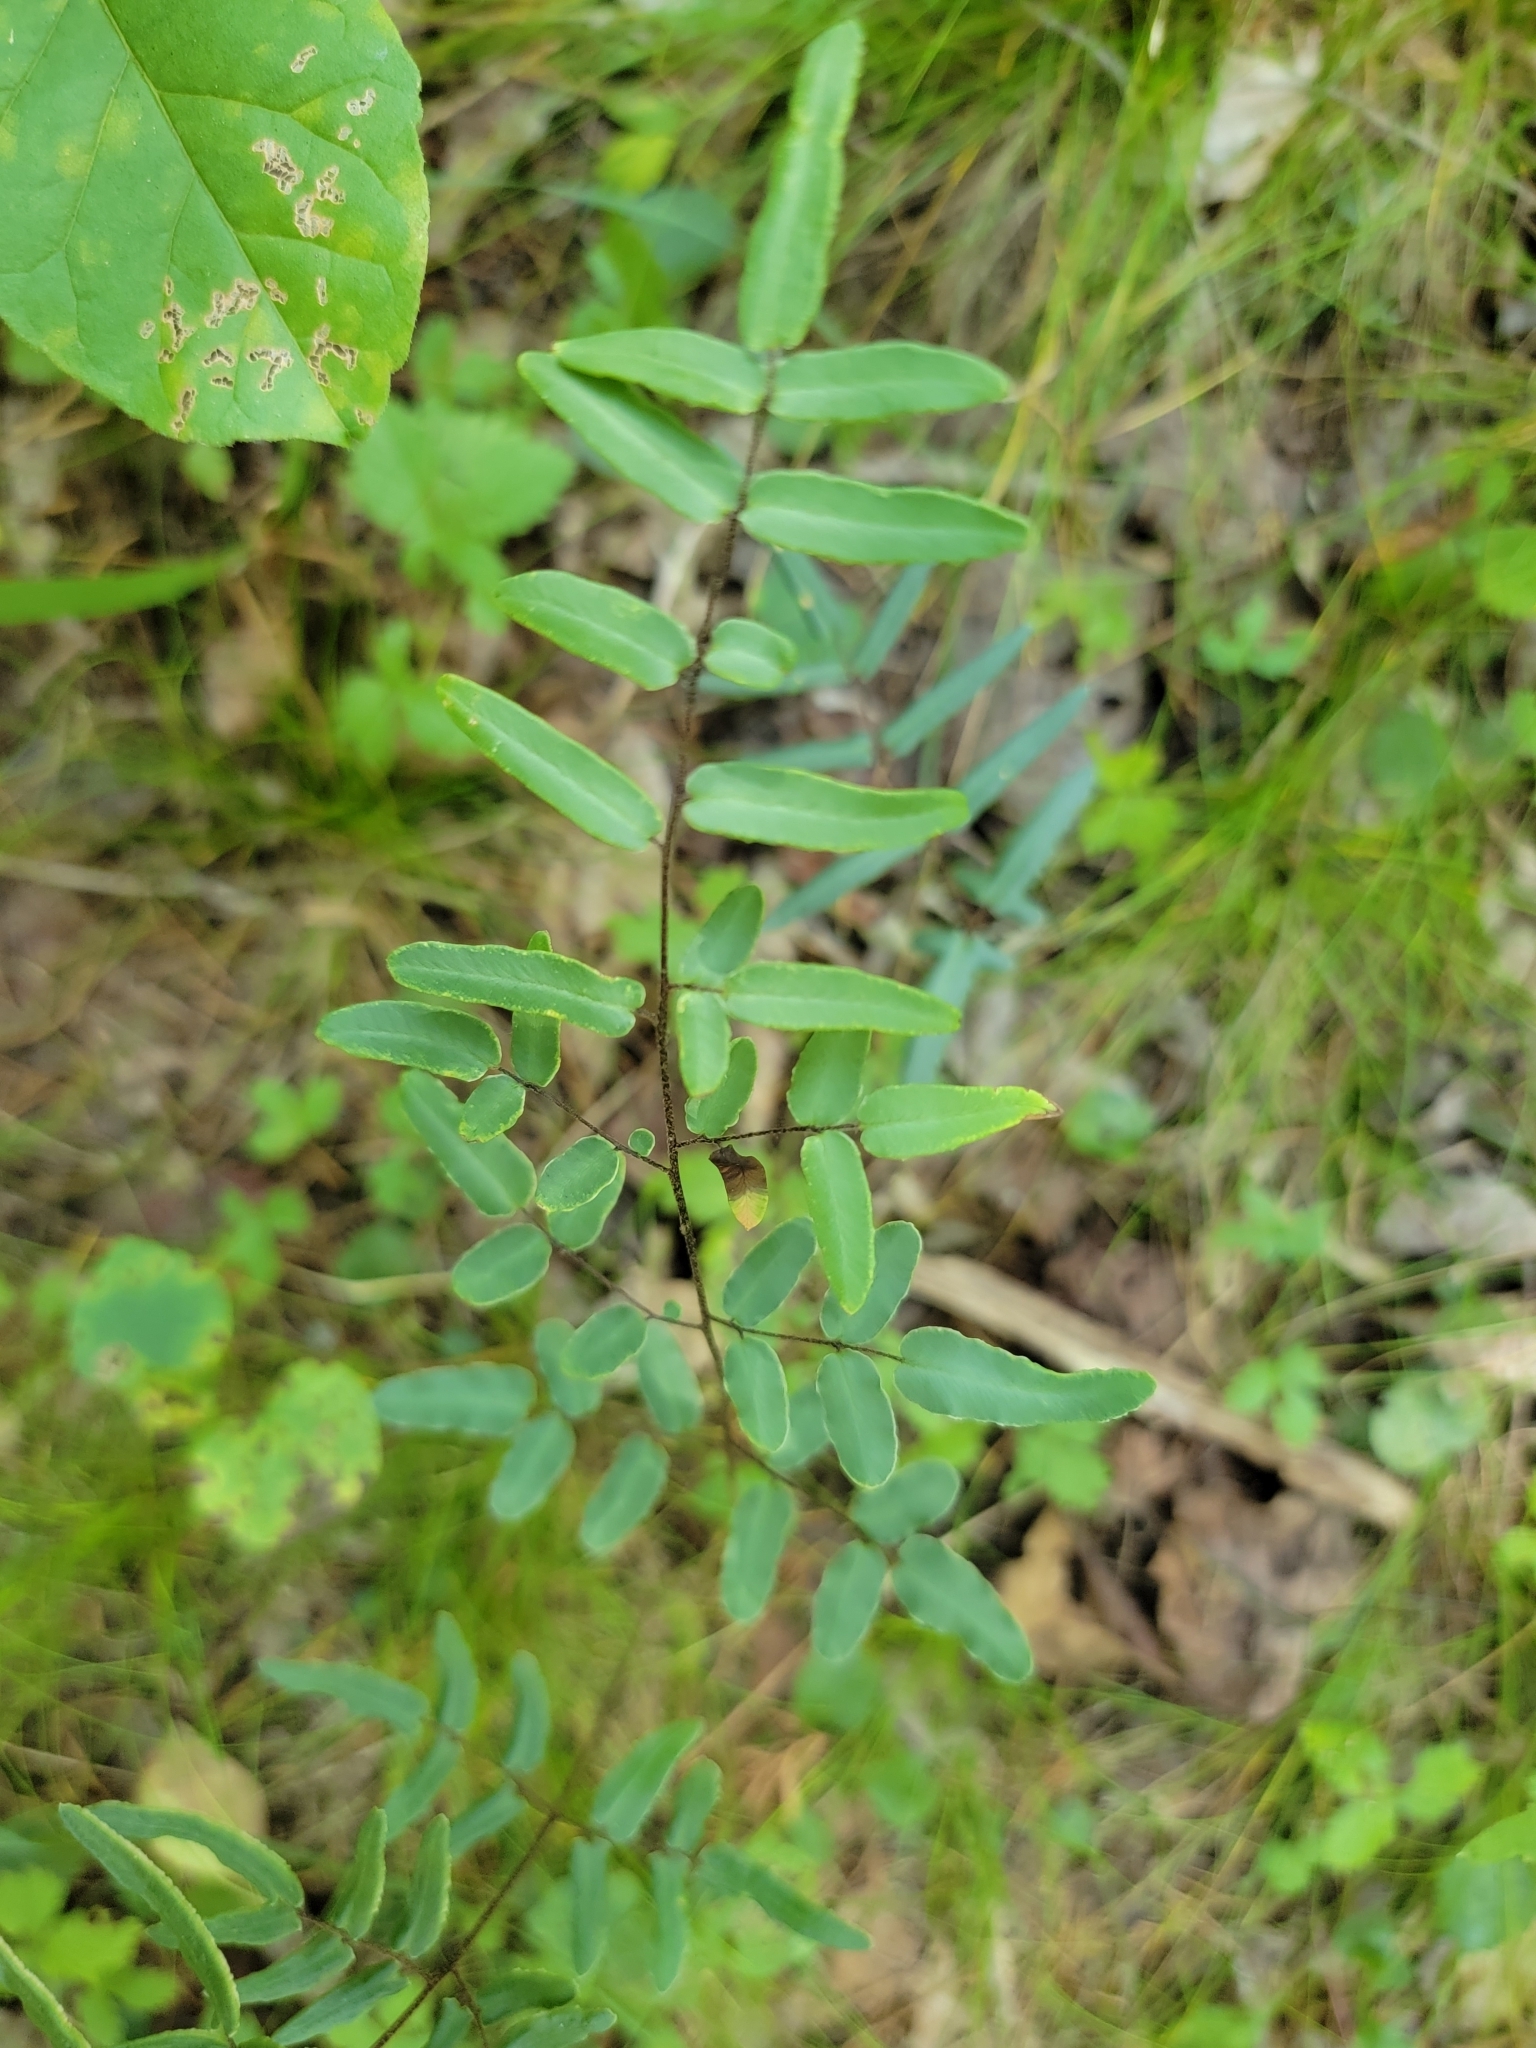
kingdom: Plantae
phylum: Tracheophyta
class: Polypodiopsida
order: Polypodiales
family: Pteridaceae
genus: Pellaea
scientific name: Pellaea atropurpurea
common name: Hairy cliffbrake
